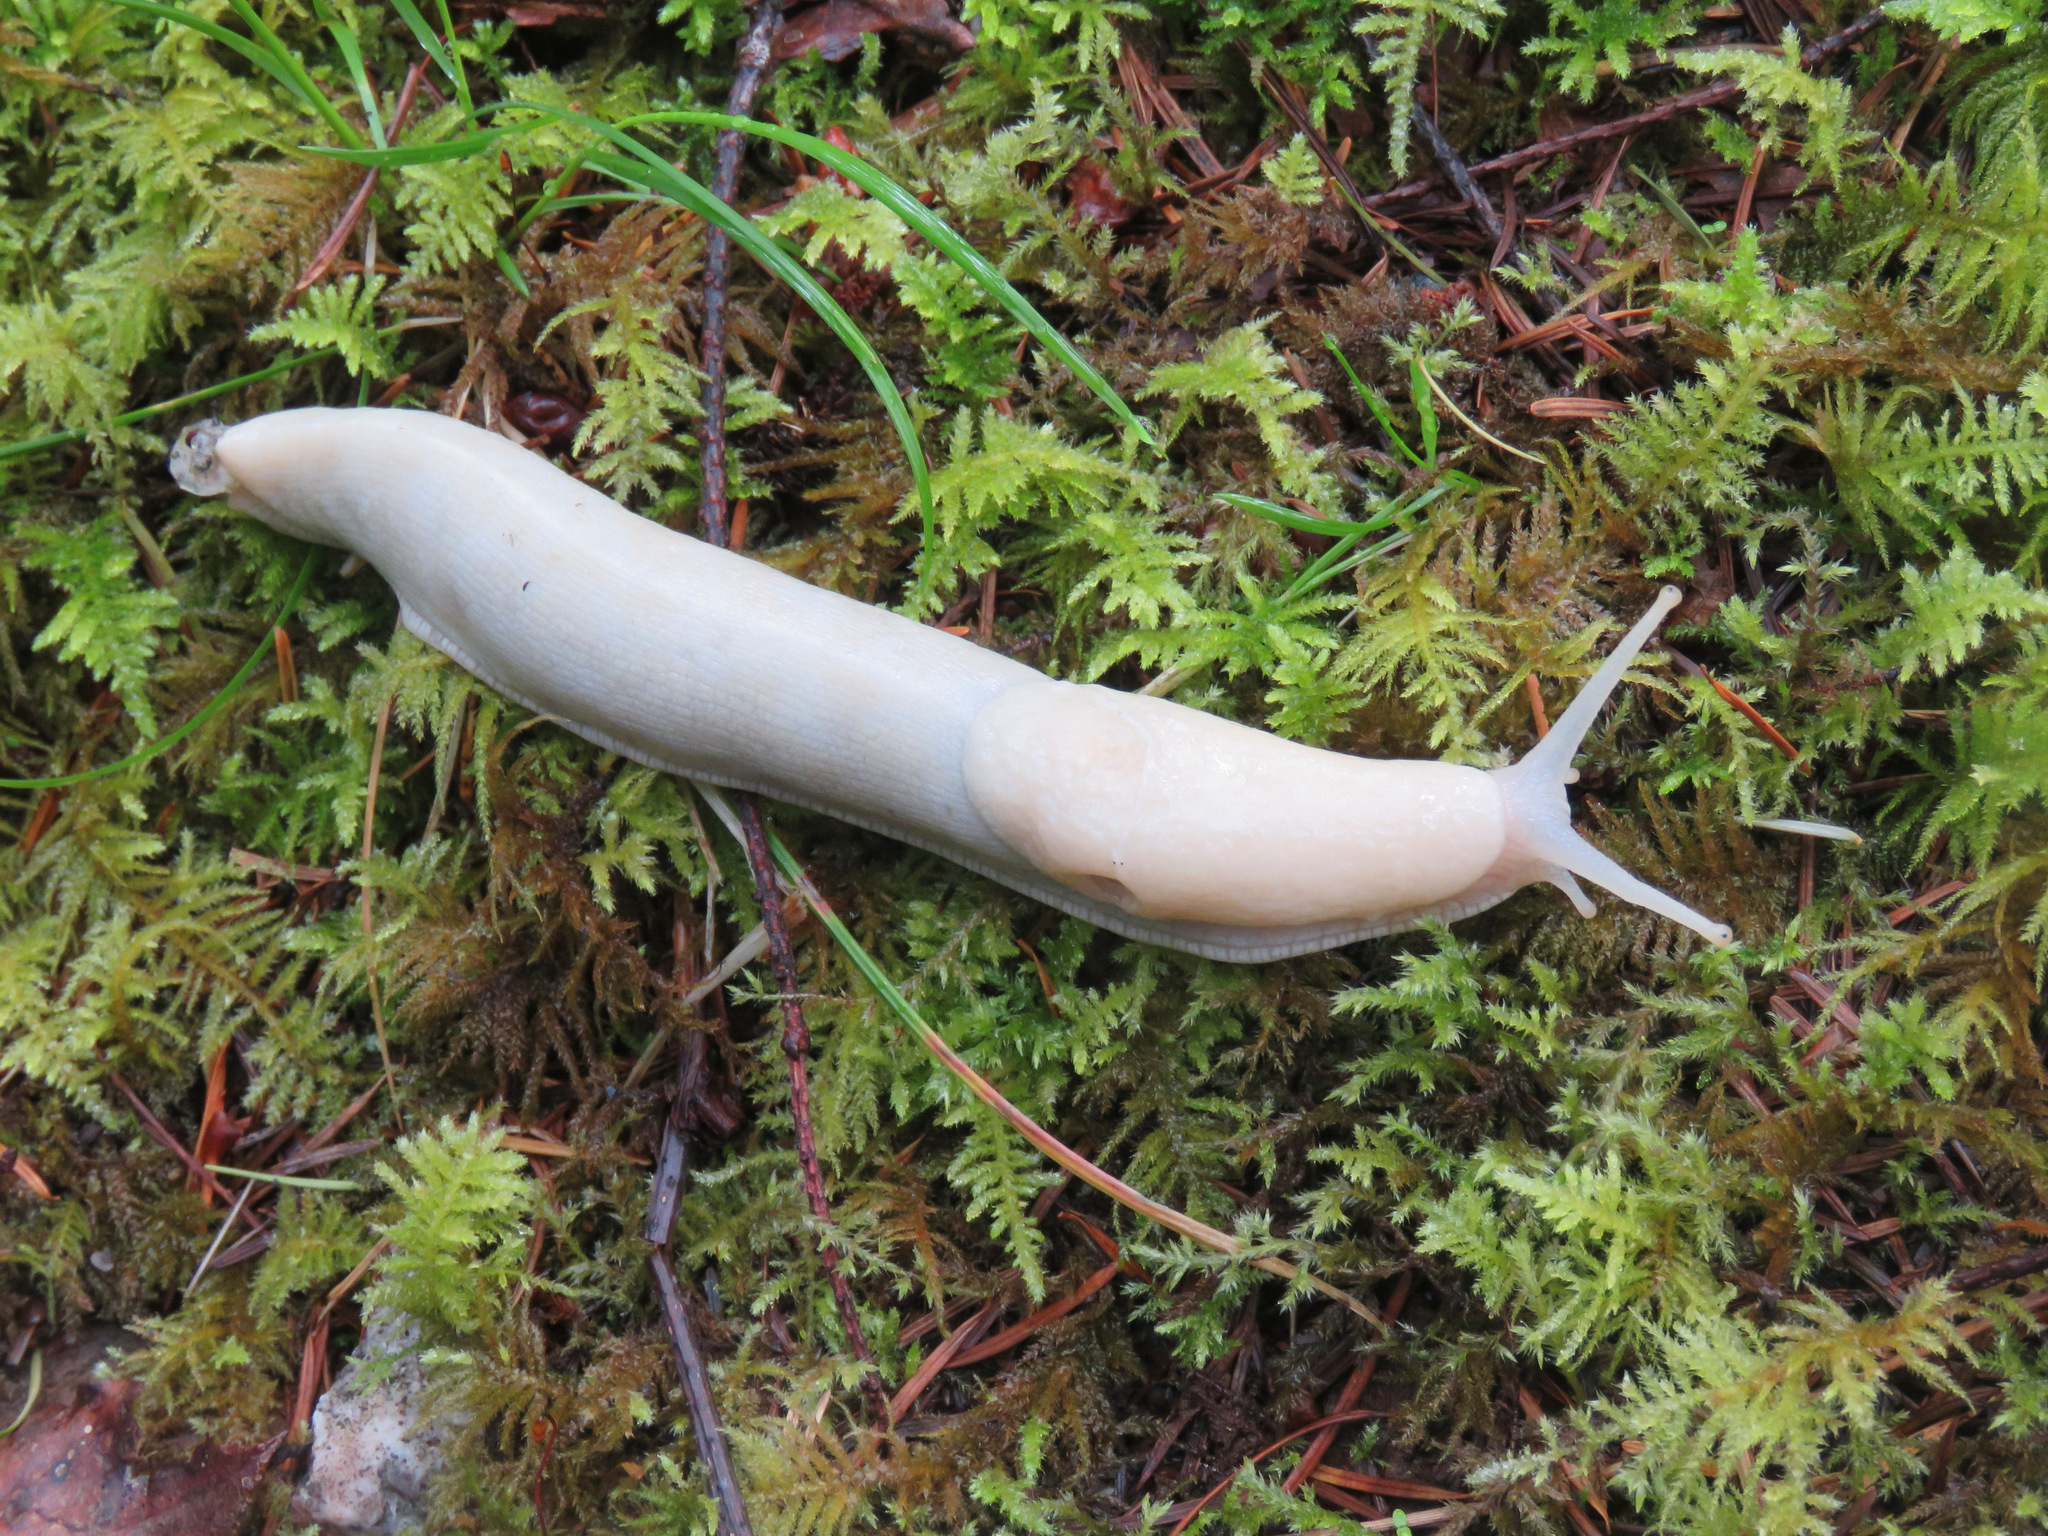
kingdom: Animalia
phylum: Mollusca
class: Gastropoda
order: Stylommatophora
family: Ariolimacidae
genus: Ariolimax
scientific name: Ariolimax columbianus
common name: Pacific banana slug
